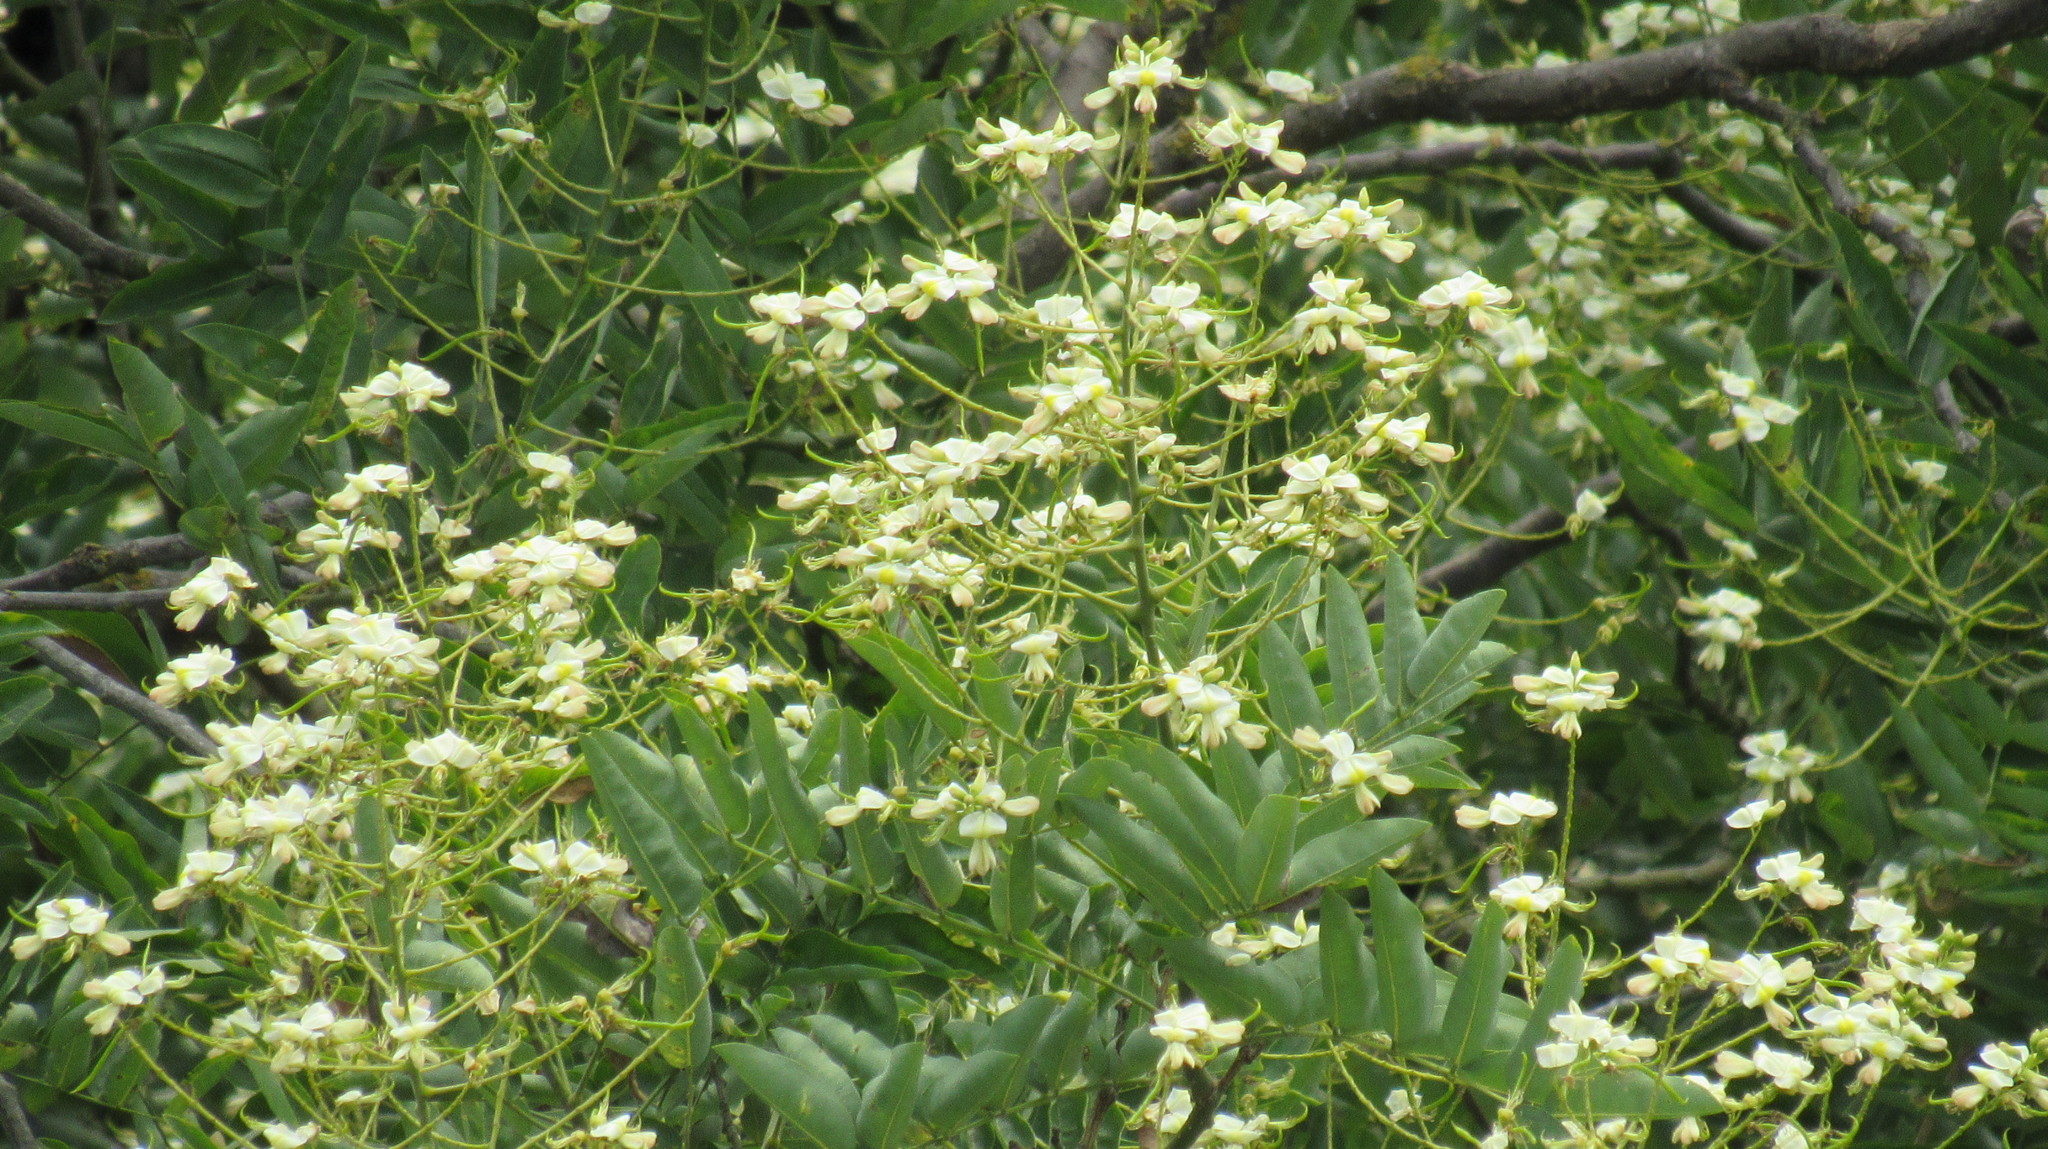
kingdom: Plantae
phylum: Tracheophyta
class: Magnoliopsida
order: Fabales
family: Fabaceae
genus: Styphnolobium
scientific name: Styphnolobium japonicum
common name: Chinese scholartree
